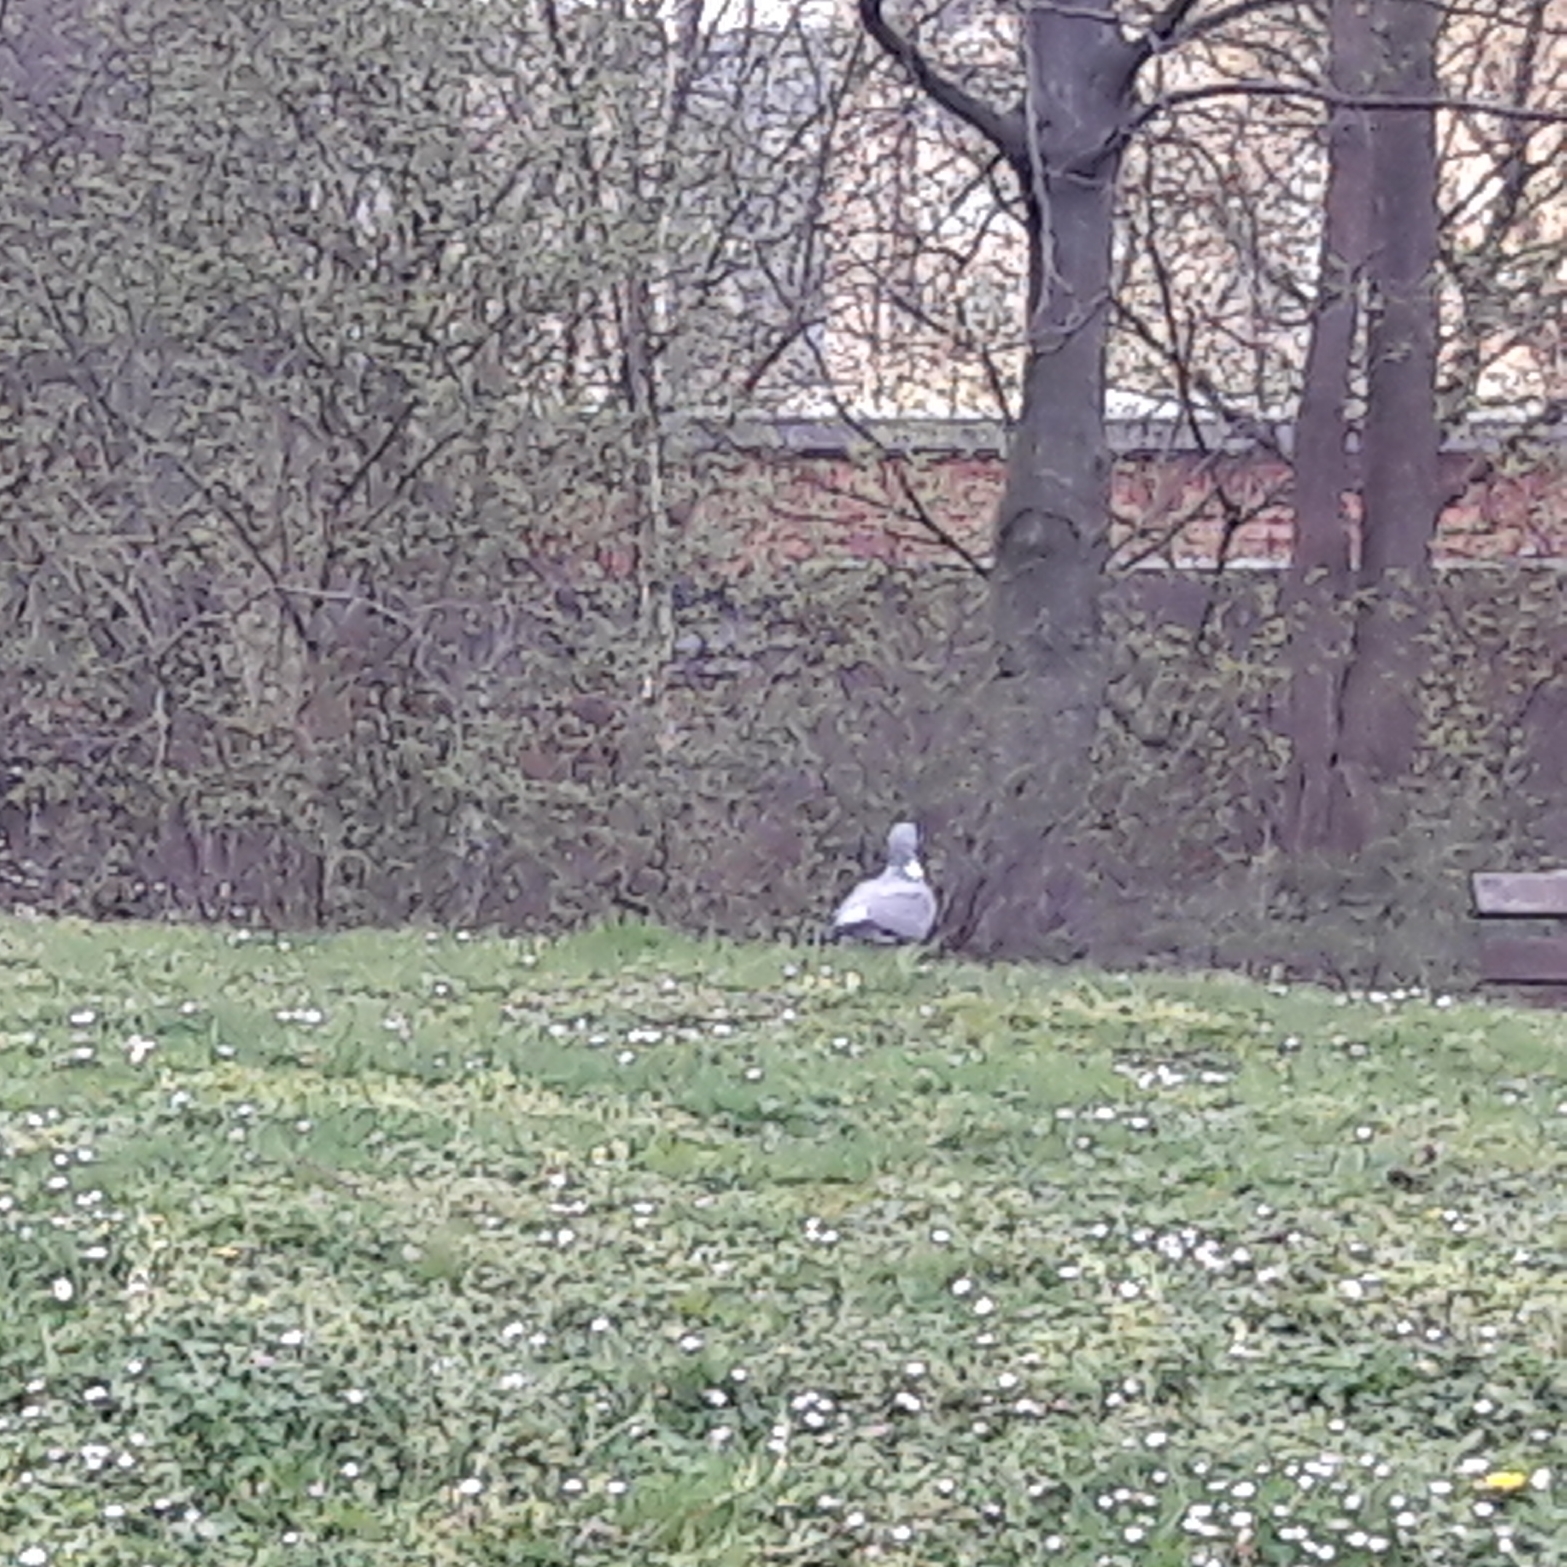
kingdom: Animalia
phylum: Chordata
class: Aves
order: Columbiformes
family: Columbidae
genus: Columba
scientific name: Columba palumbus
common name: Common wood pigeon
